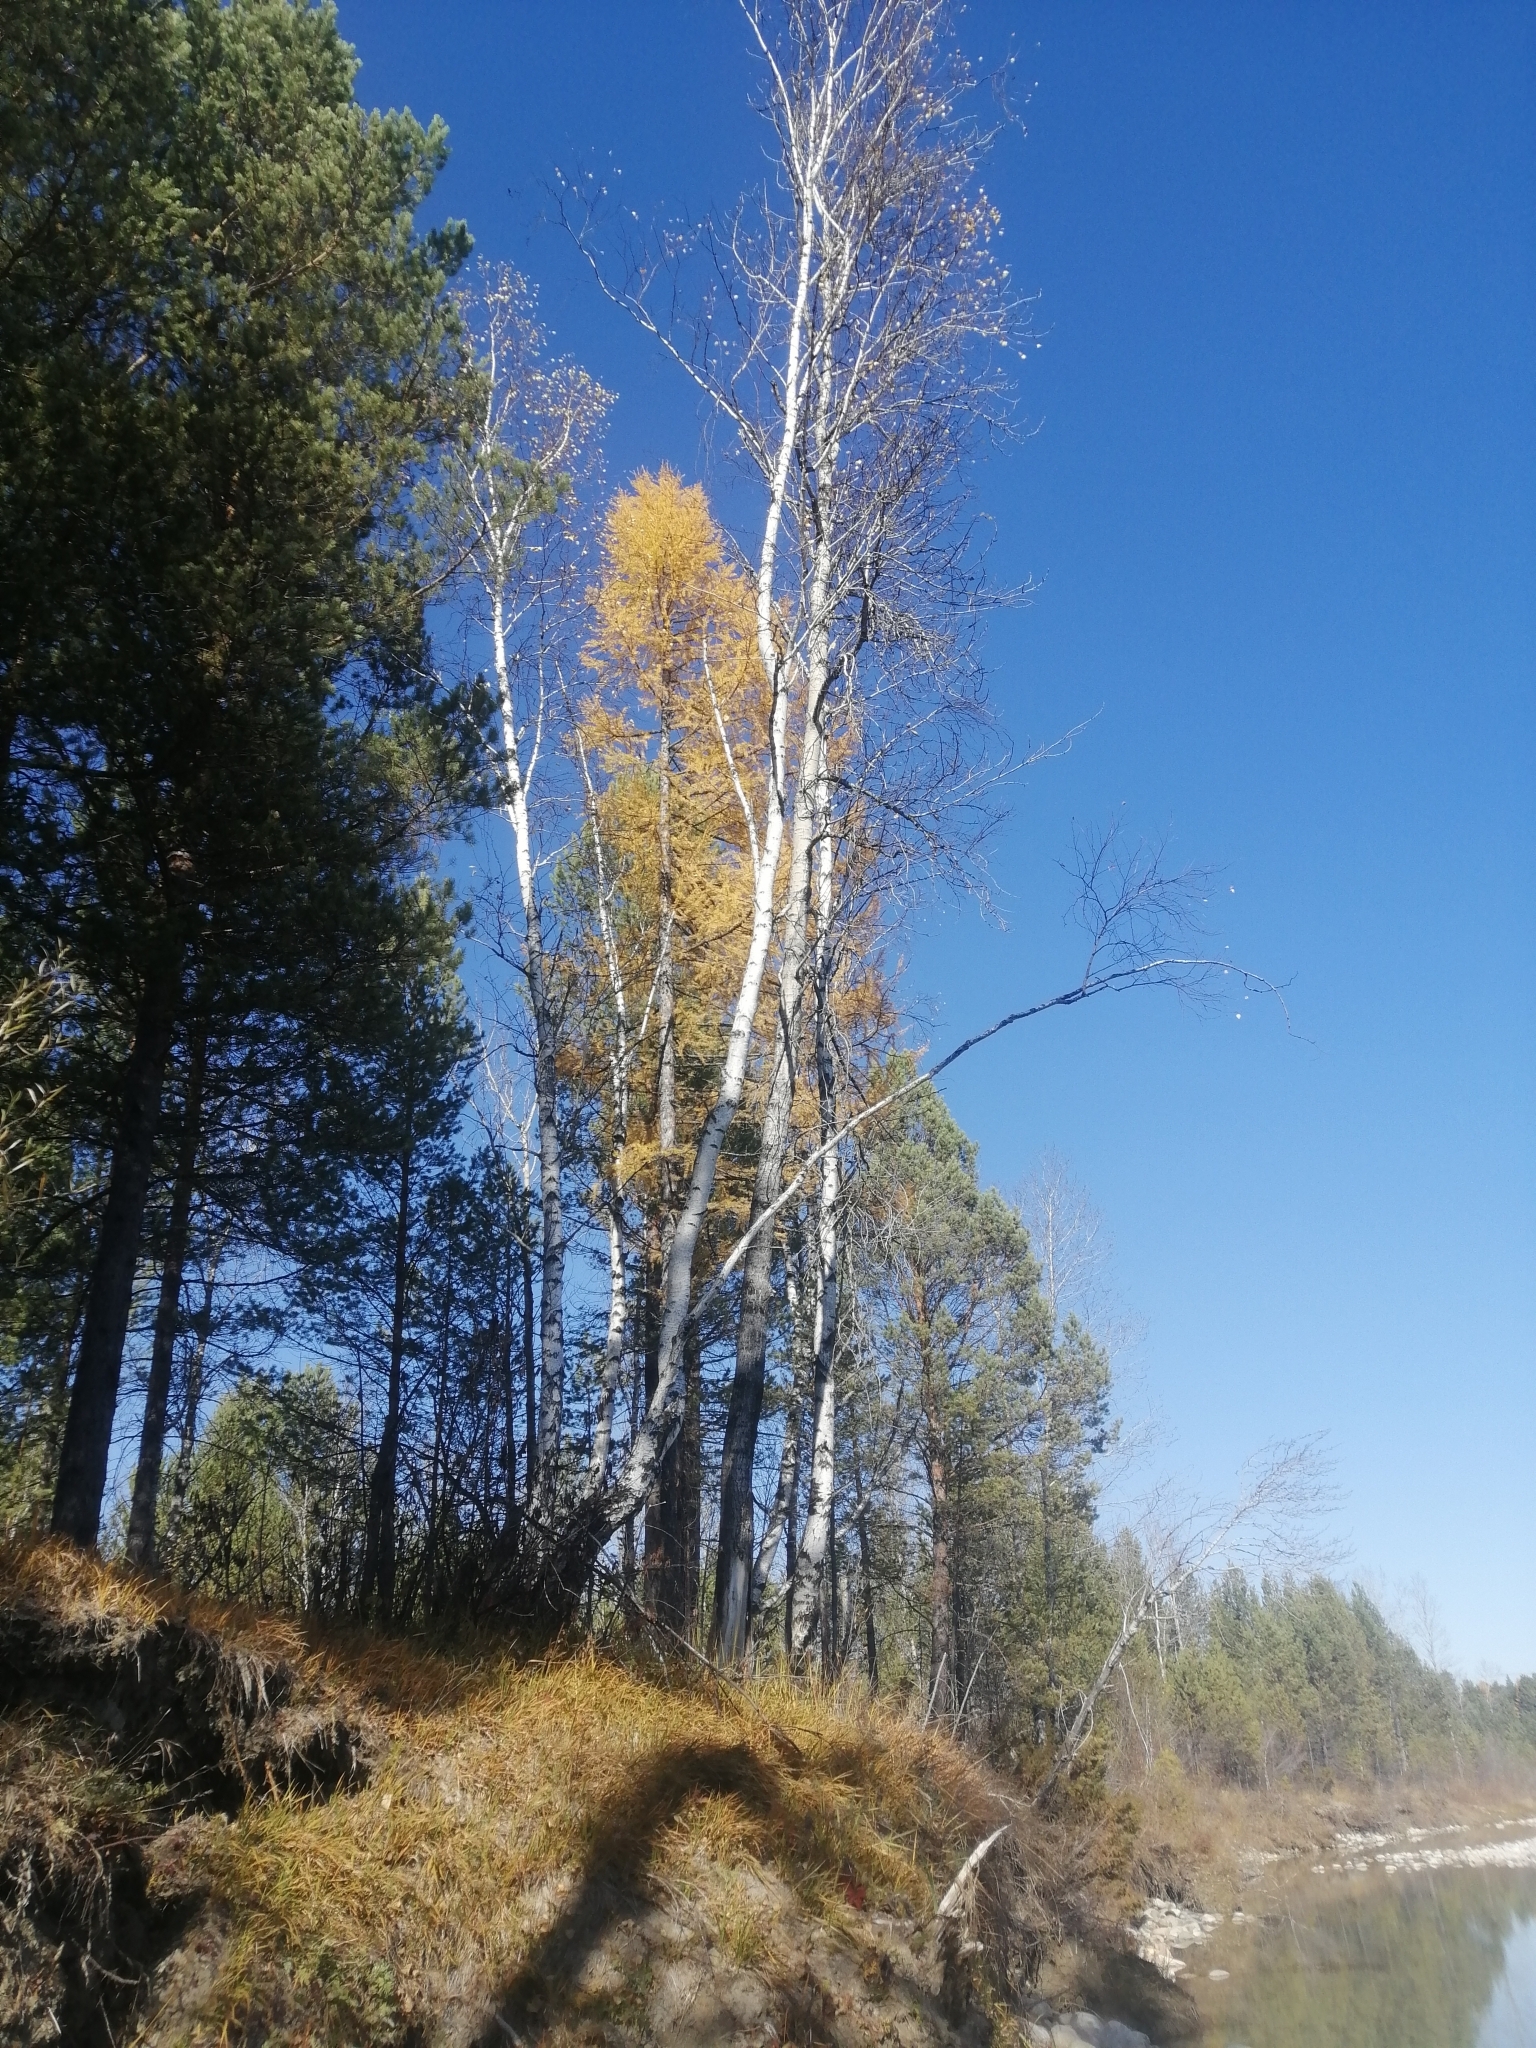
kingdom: Plantae
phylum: Tracheophyta
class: Pinopsida
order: Pinales
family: Pinaceae
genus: Larix
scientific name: Larix sibirica
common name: Siberian larch
